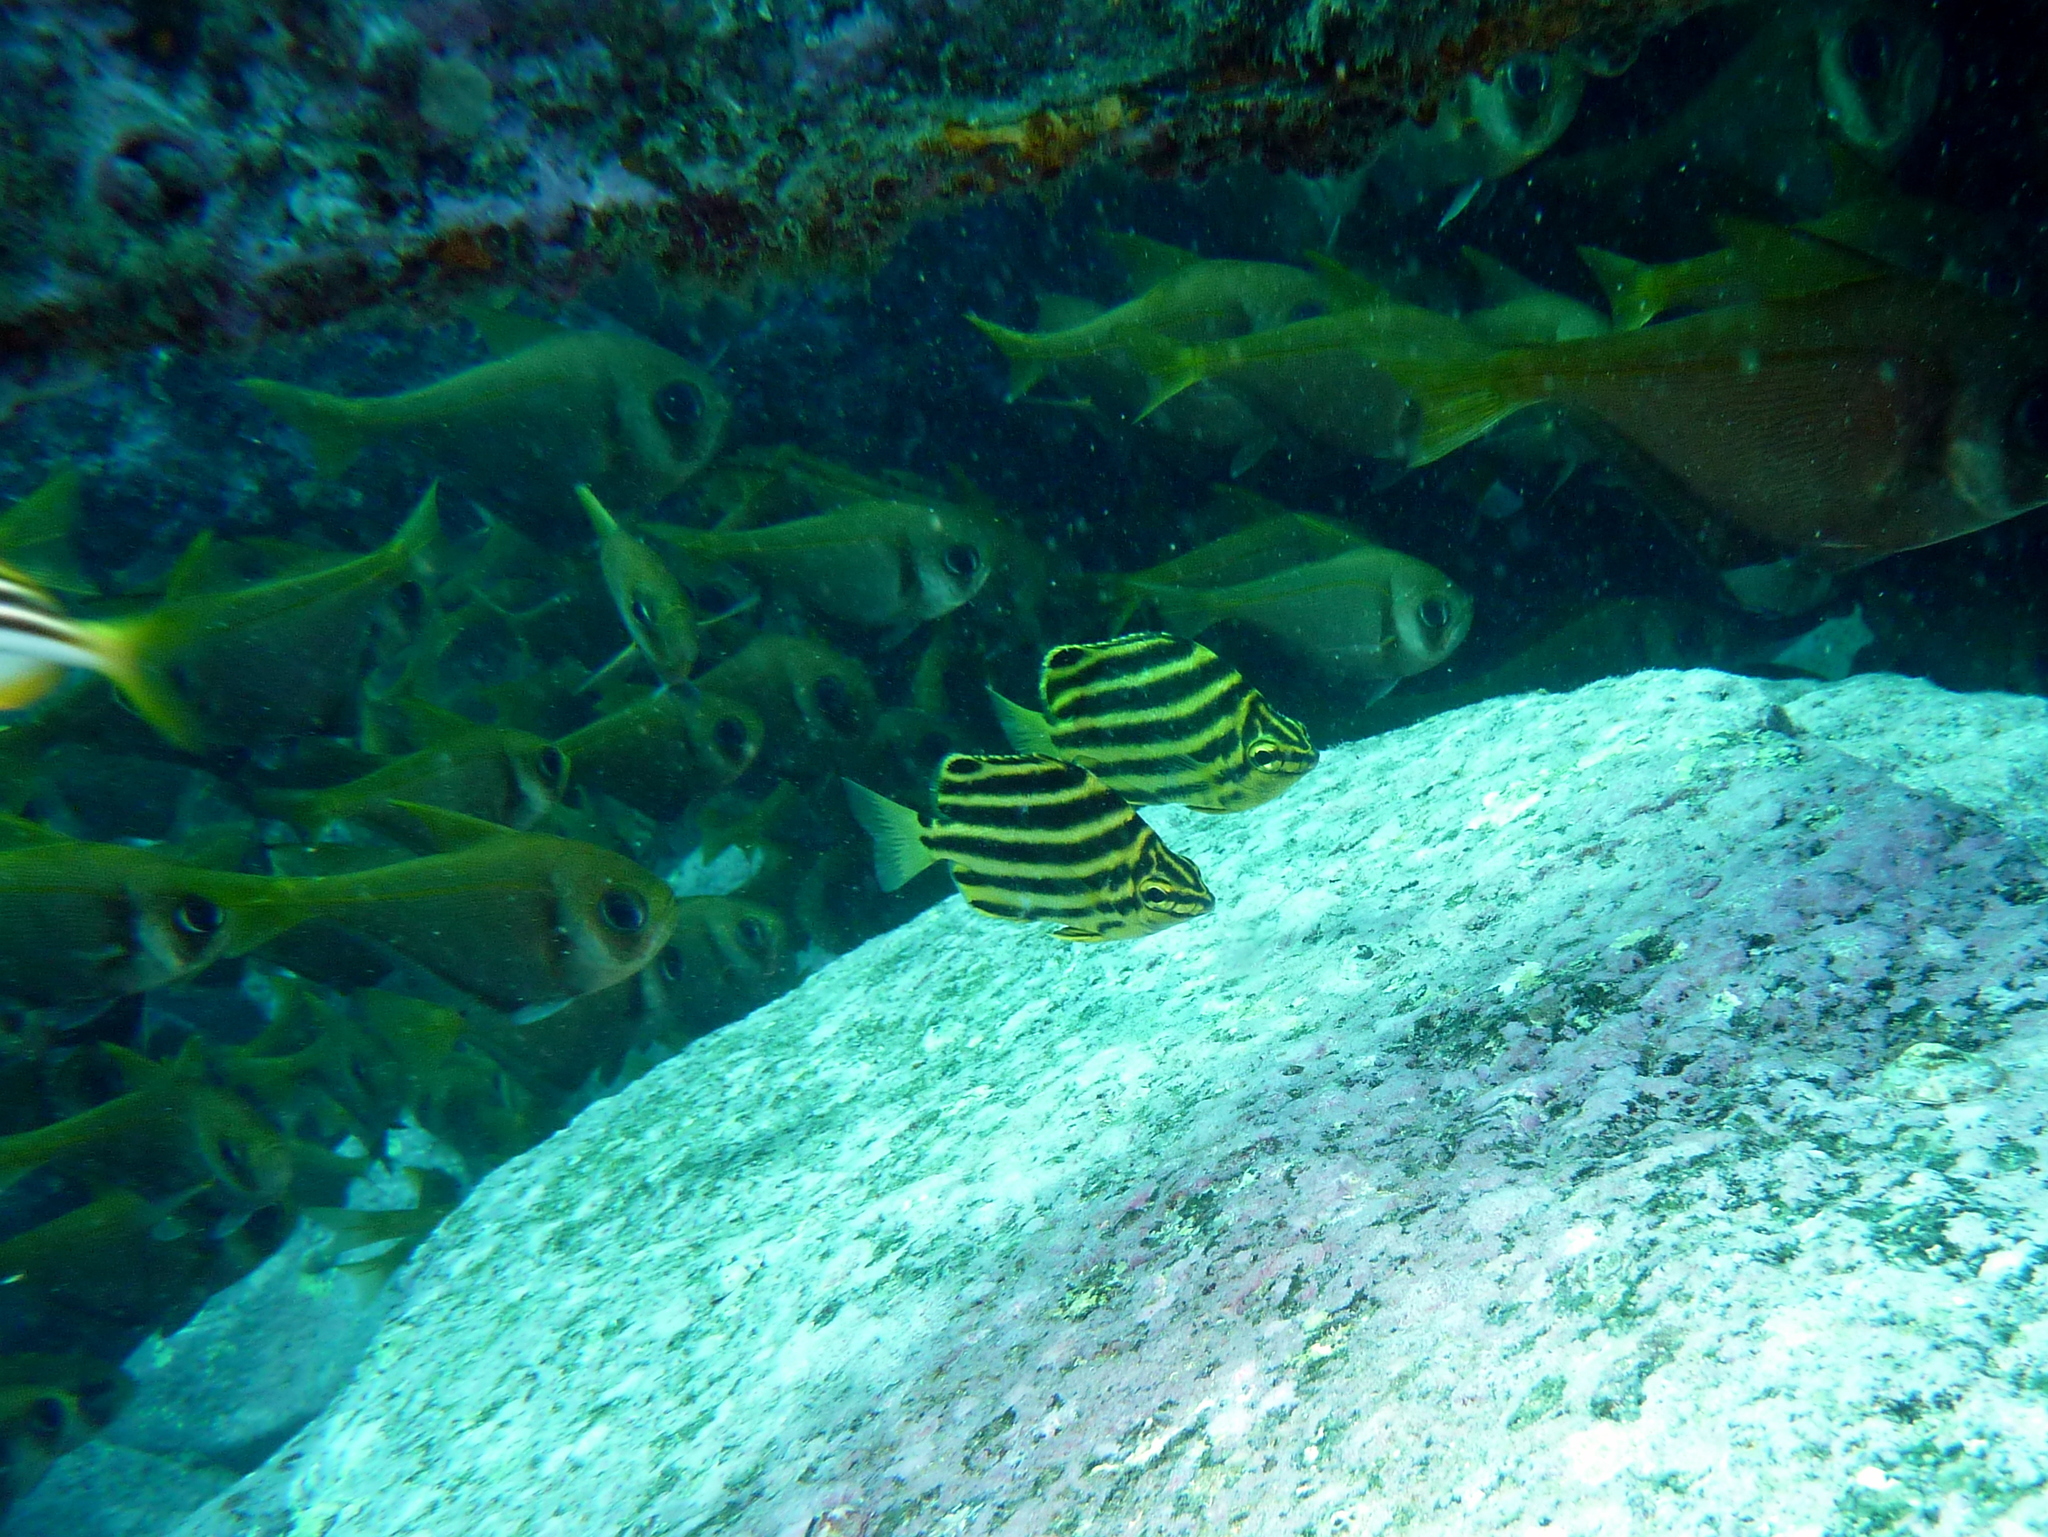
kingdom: Animalia
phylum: Chordata
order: Perciformes
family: Kyphosidae
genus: Microcanthus
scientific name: Microcanthus joyceae
